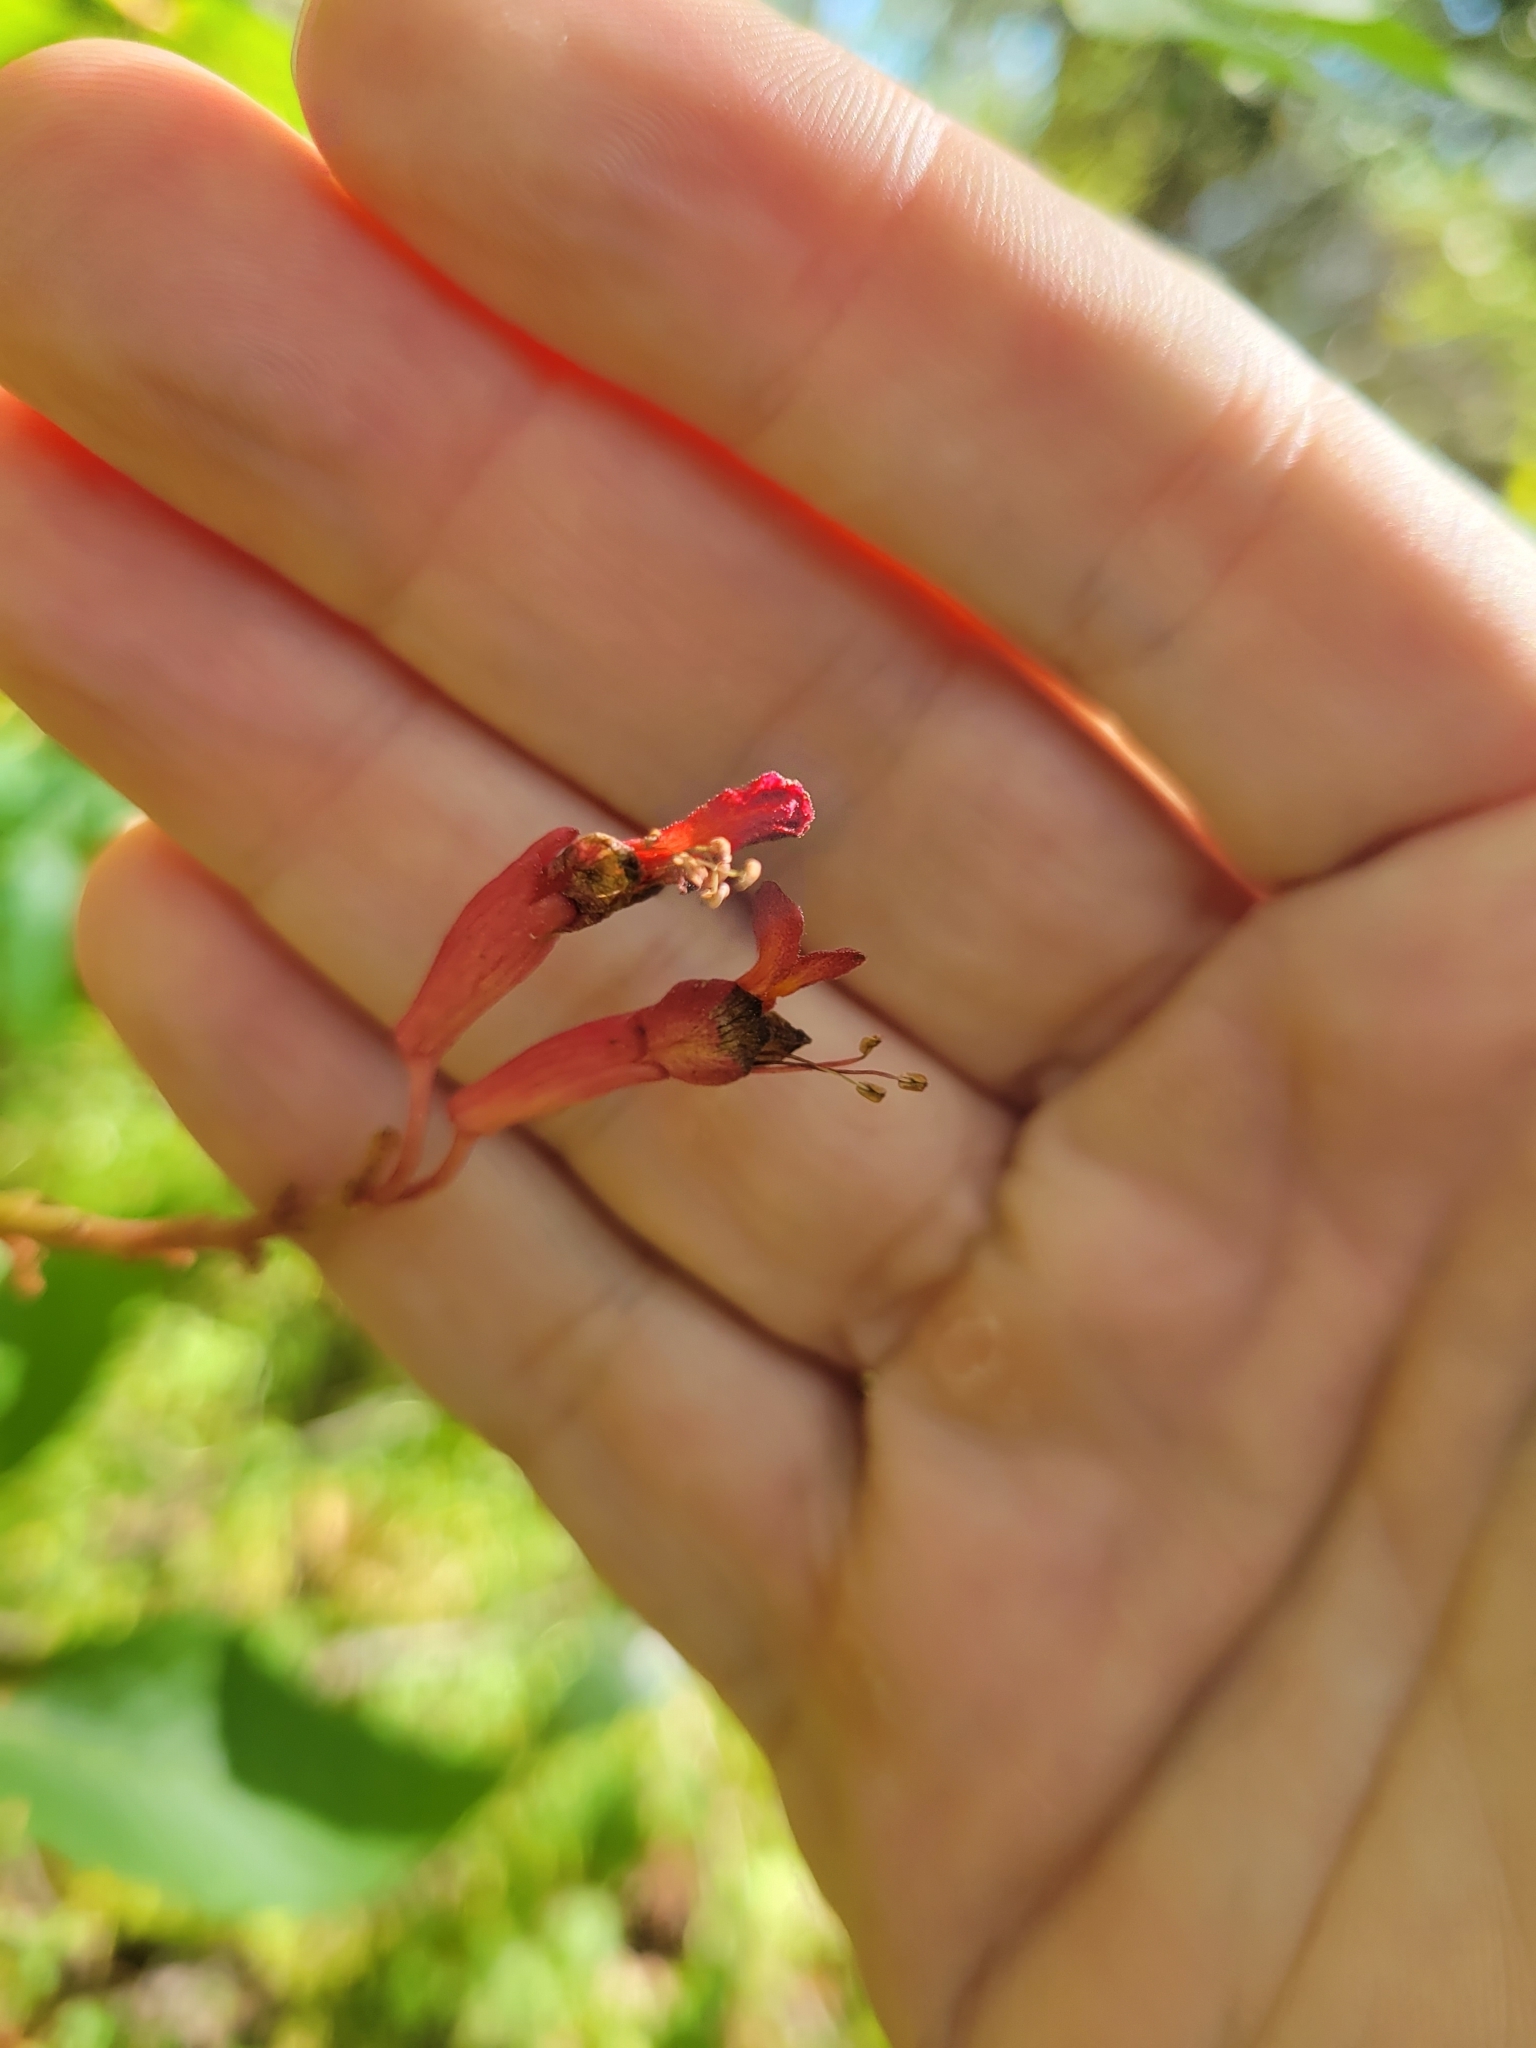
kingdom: Plantae
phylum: Tracheophyta
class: Magnoliopsida
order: Sapindales
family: Sapindaceae
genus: Aesculus
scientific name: Aesculus pavia
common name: Red buckeye
